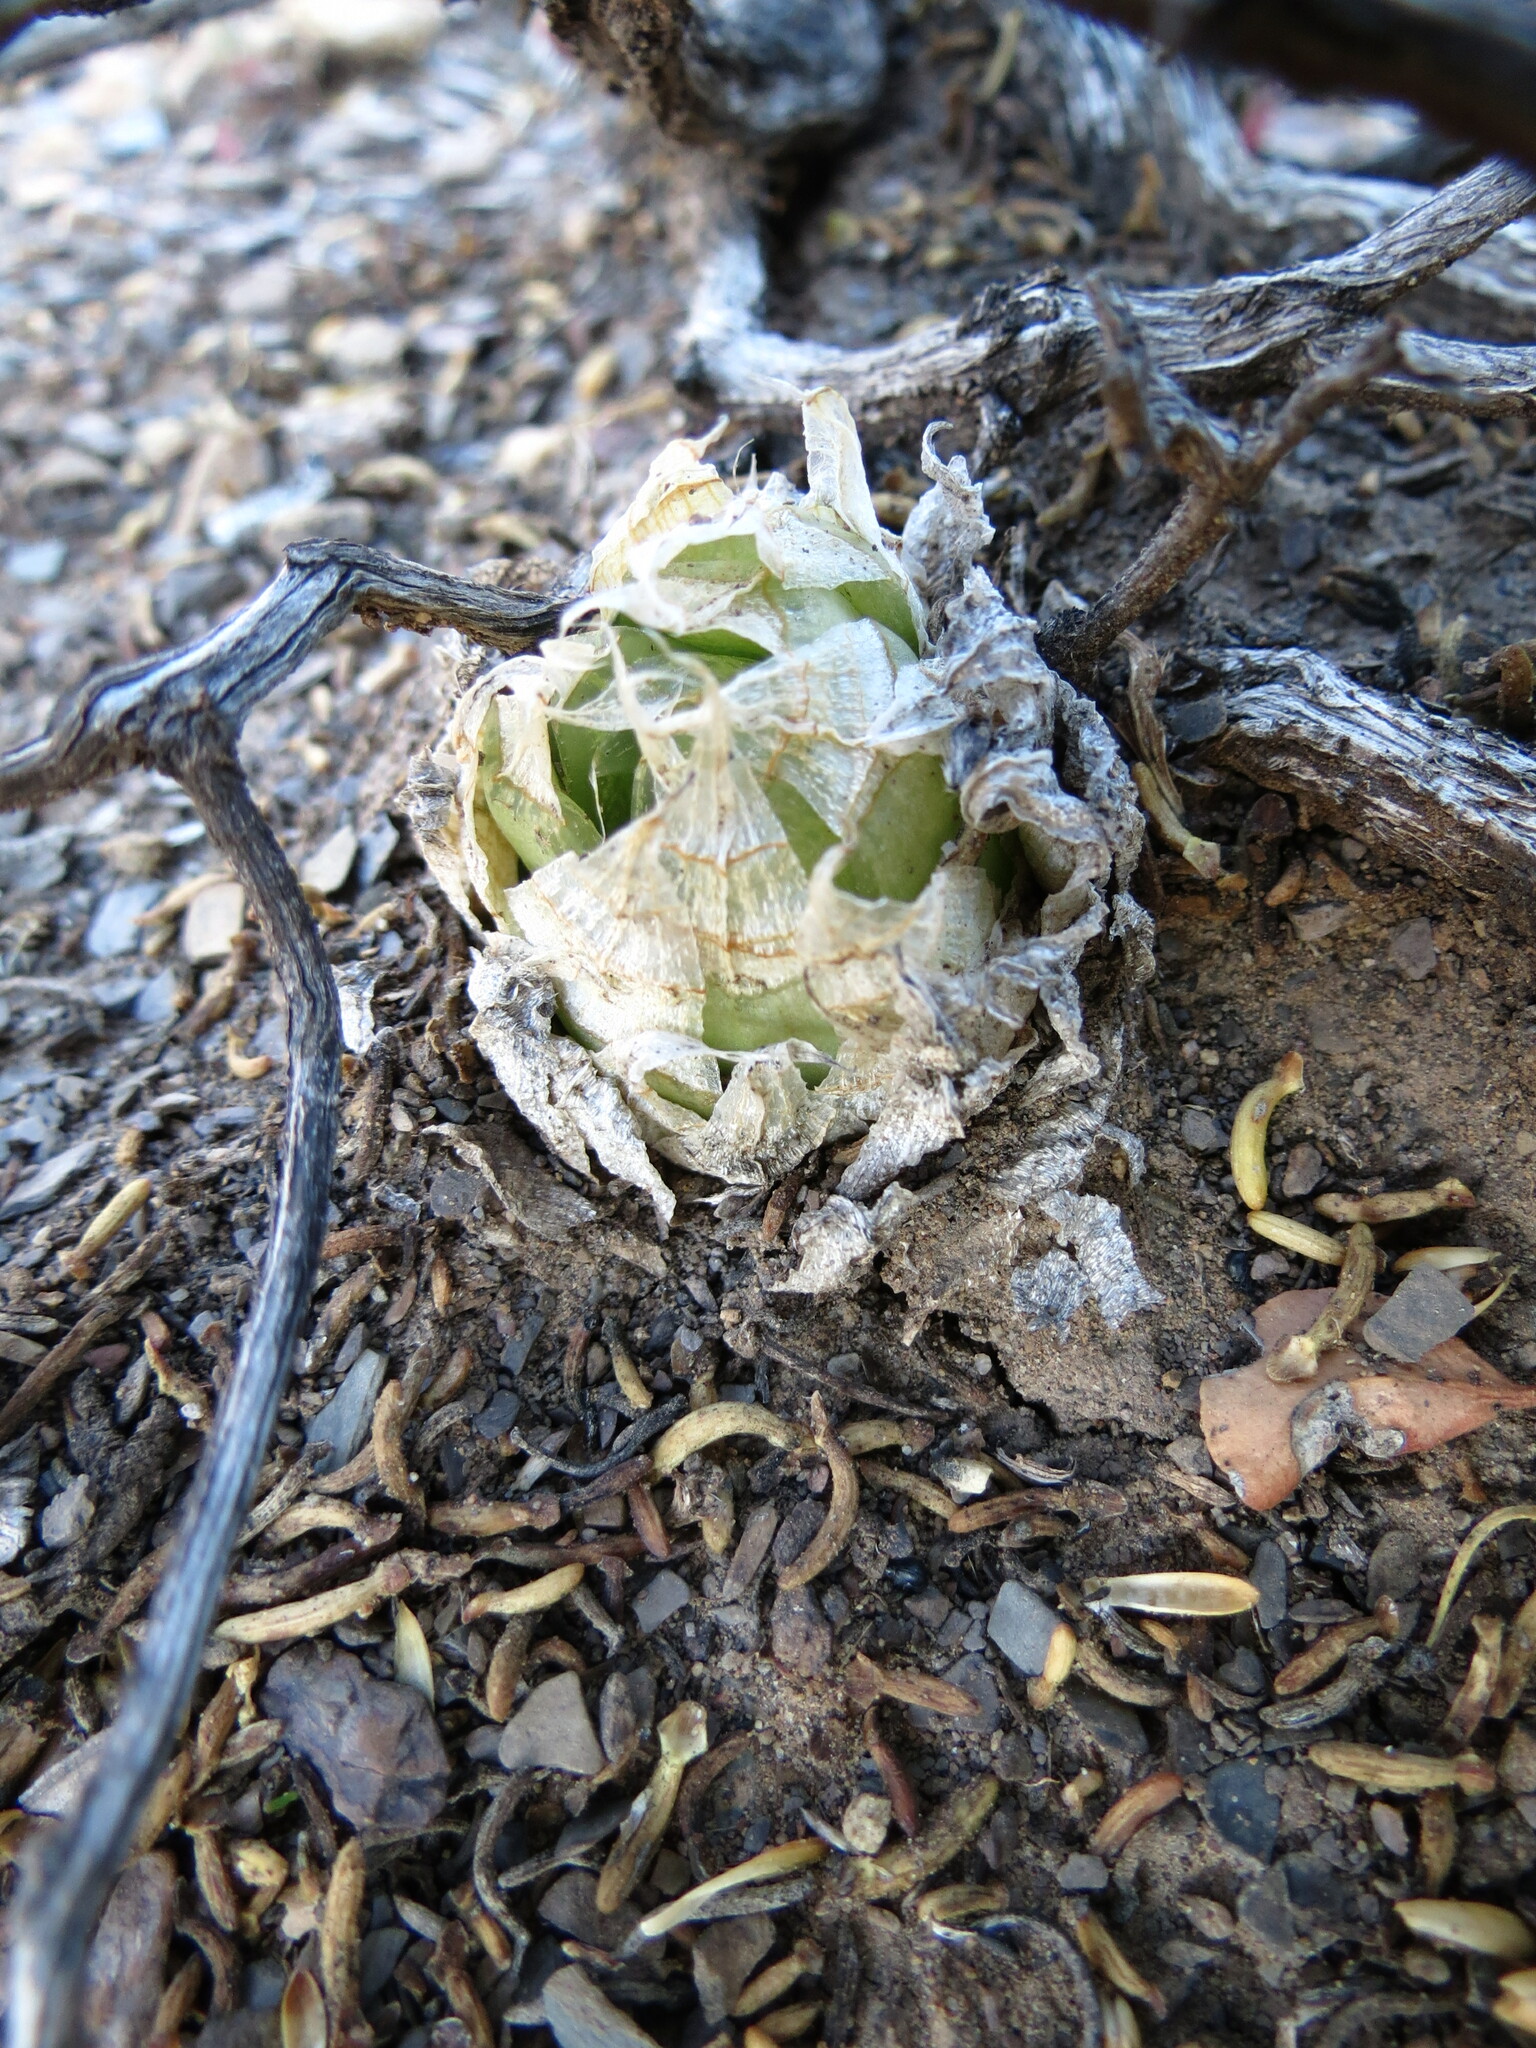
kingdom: Plantae
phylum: Tracheophyta
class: Liliopsida
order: Asparagales
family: Asphodelaceae
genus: Haworthia
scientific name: Haworthia lockwoodii
